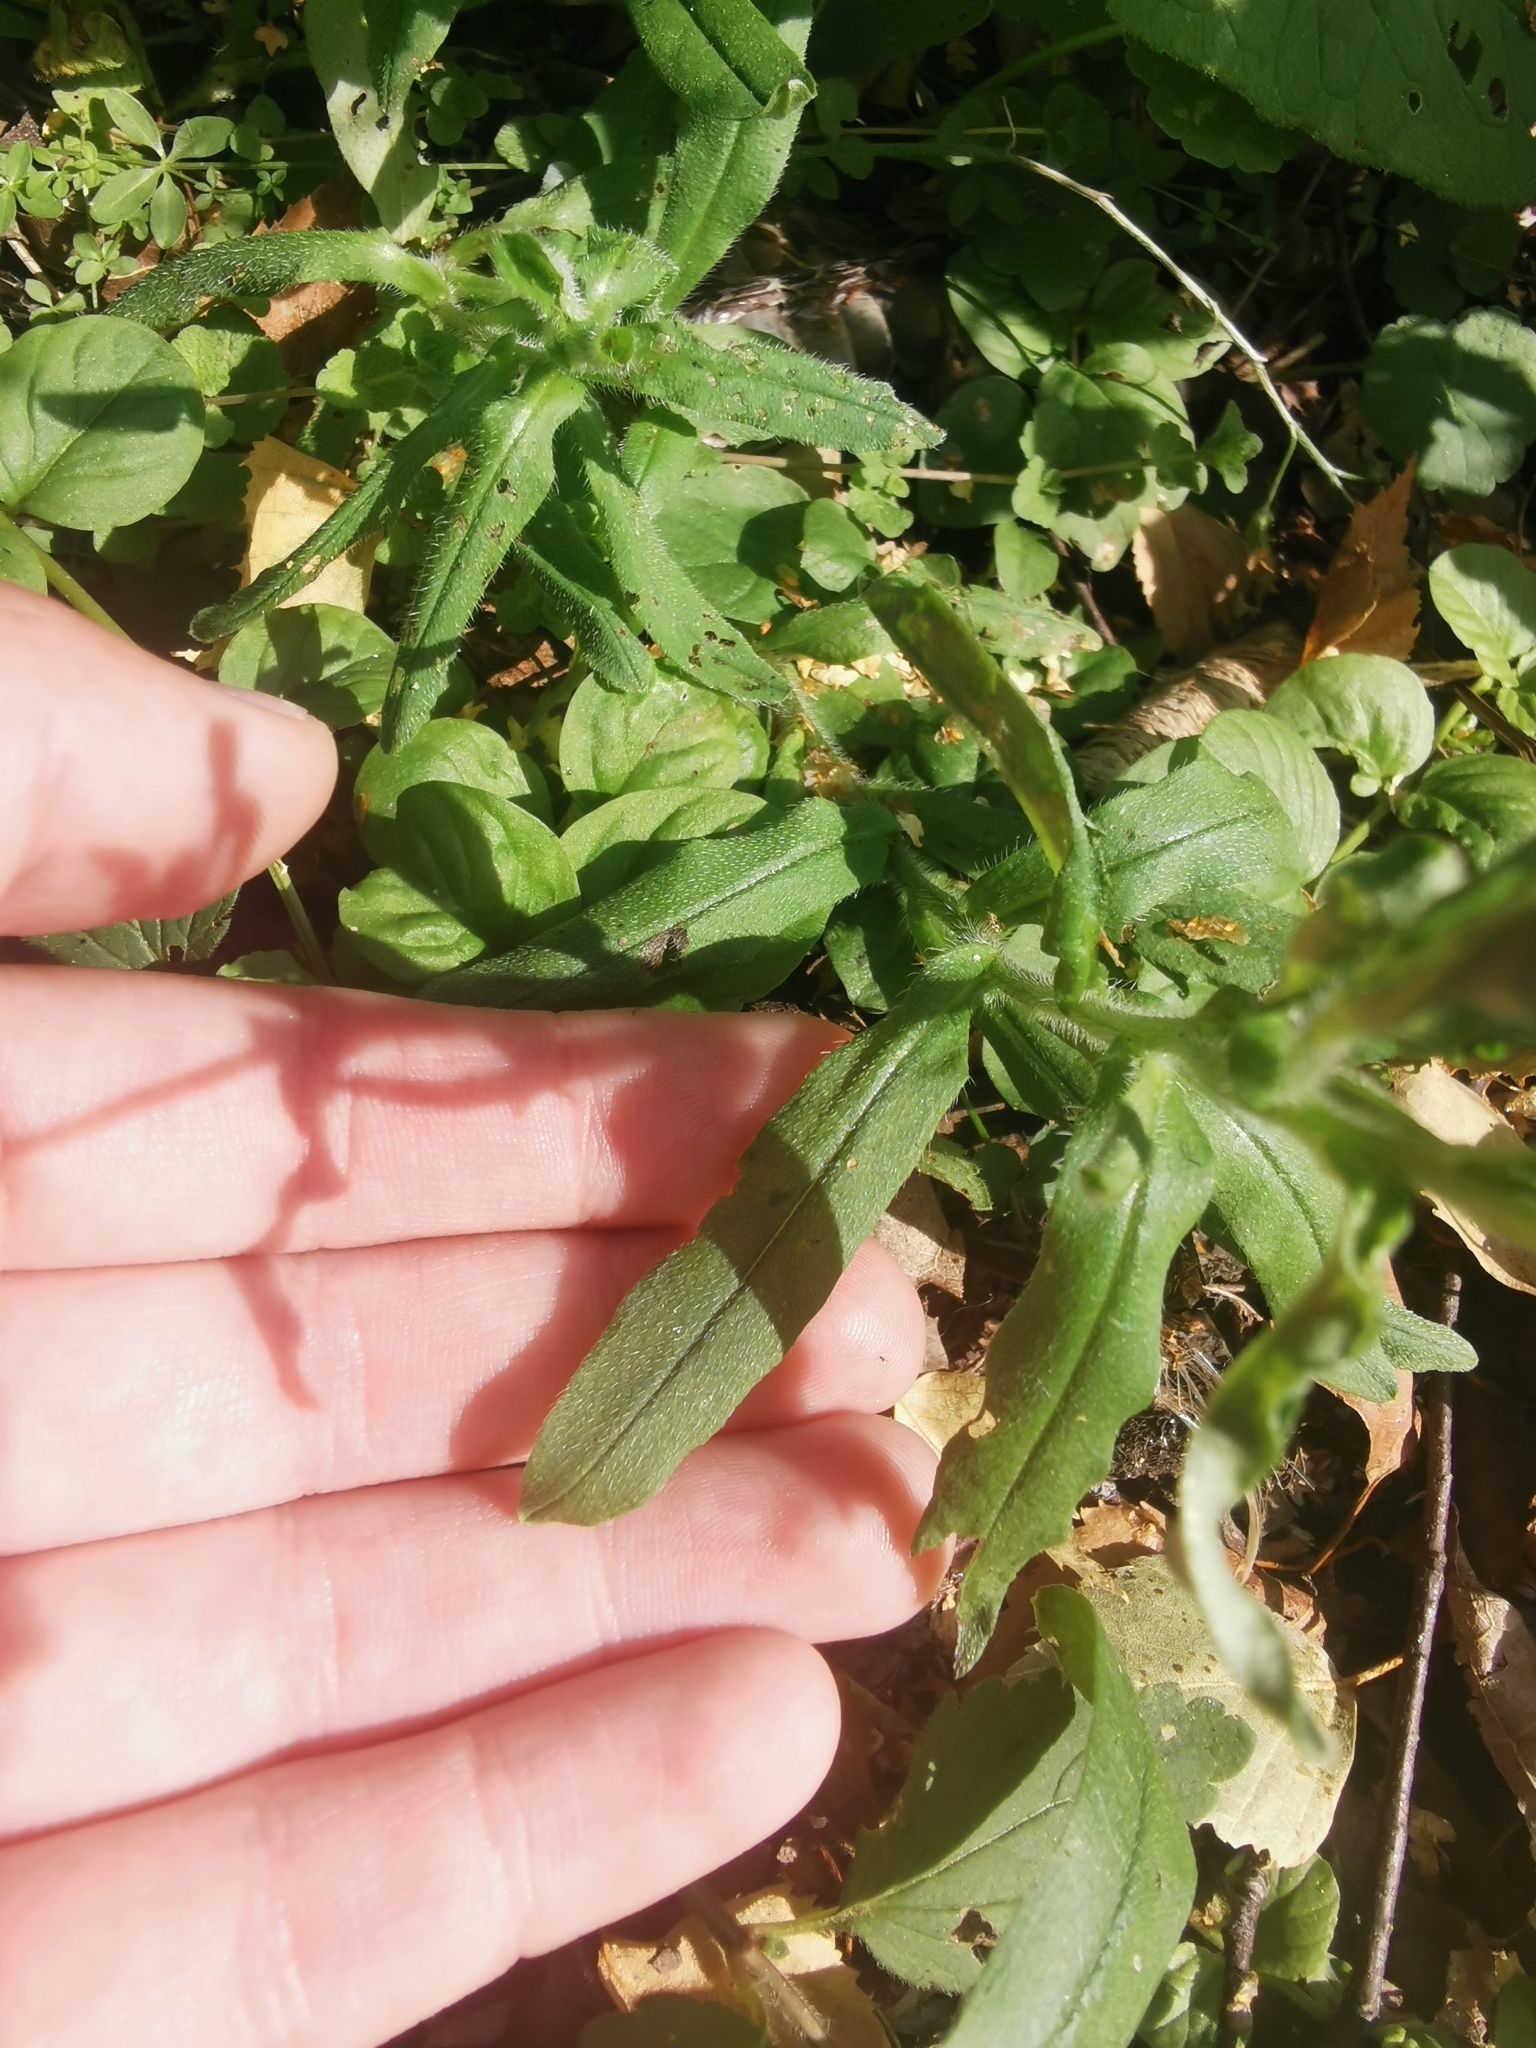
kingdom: Plantae
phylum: Tracheophyta
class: Magnoliopsida
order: Boraginales
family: Boraginaceae
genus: Myosotis
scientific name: Myosotis scorpioides
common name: Water forget-me-not
